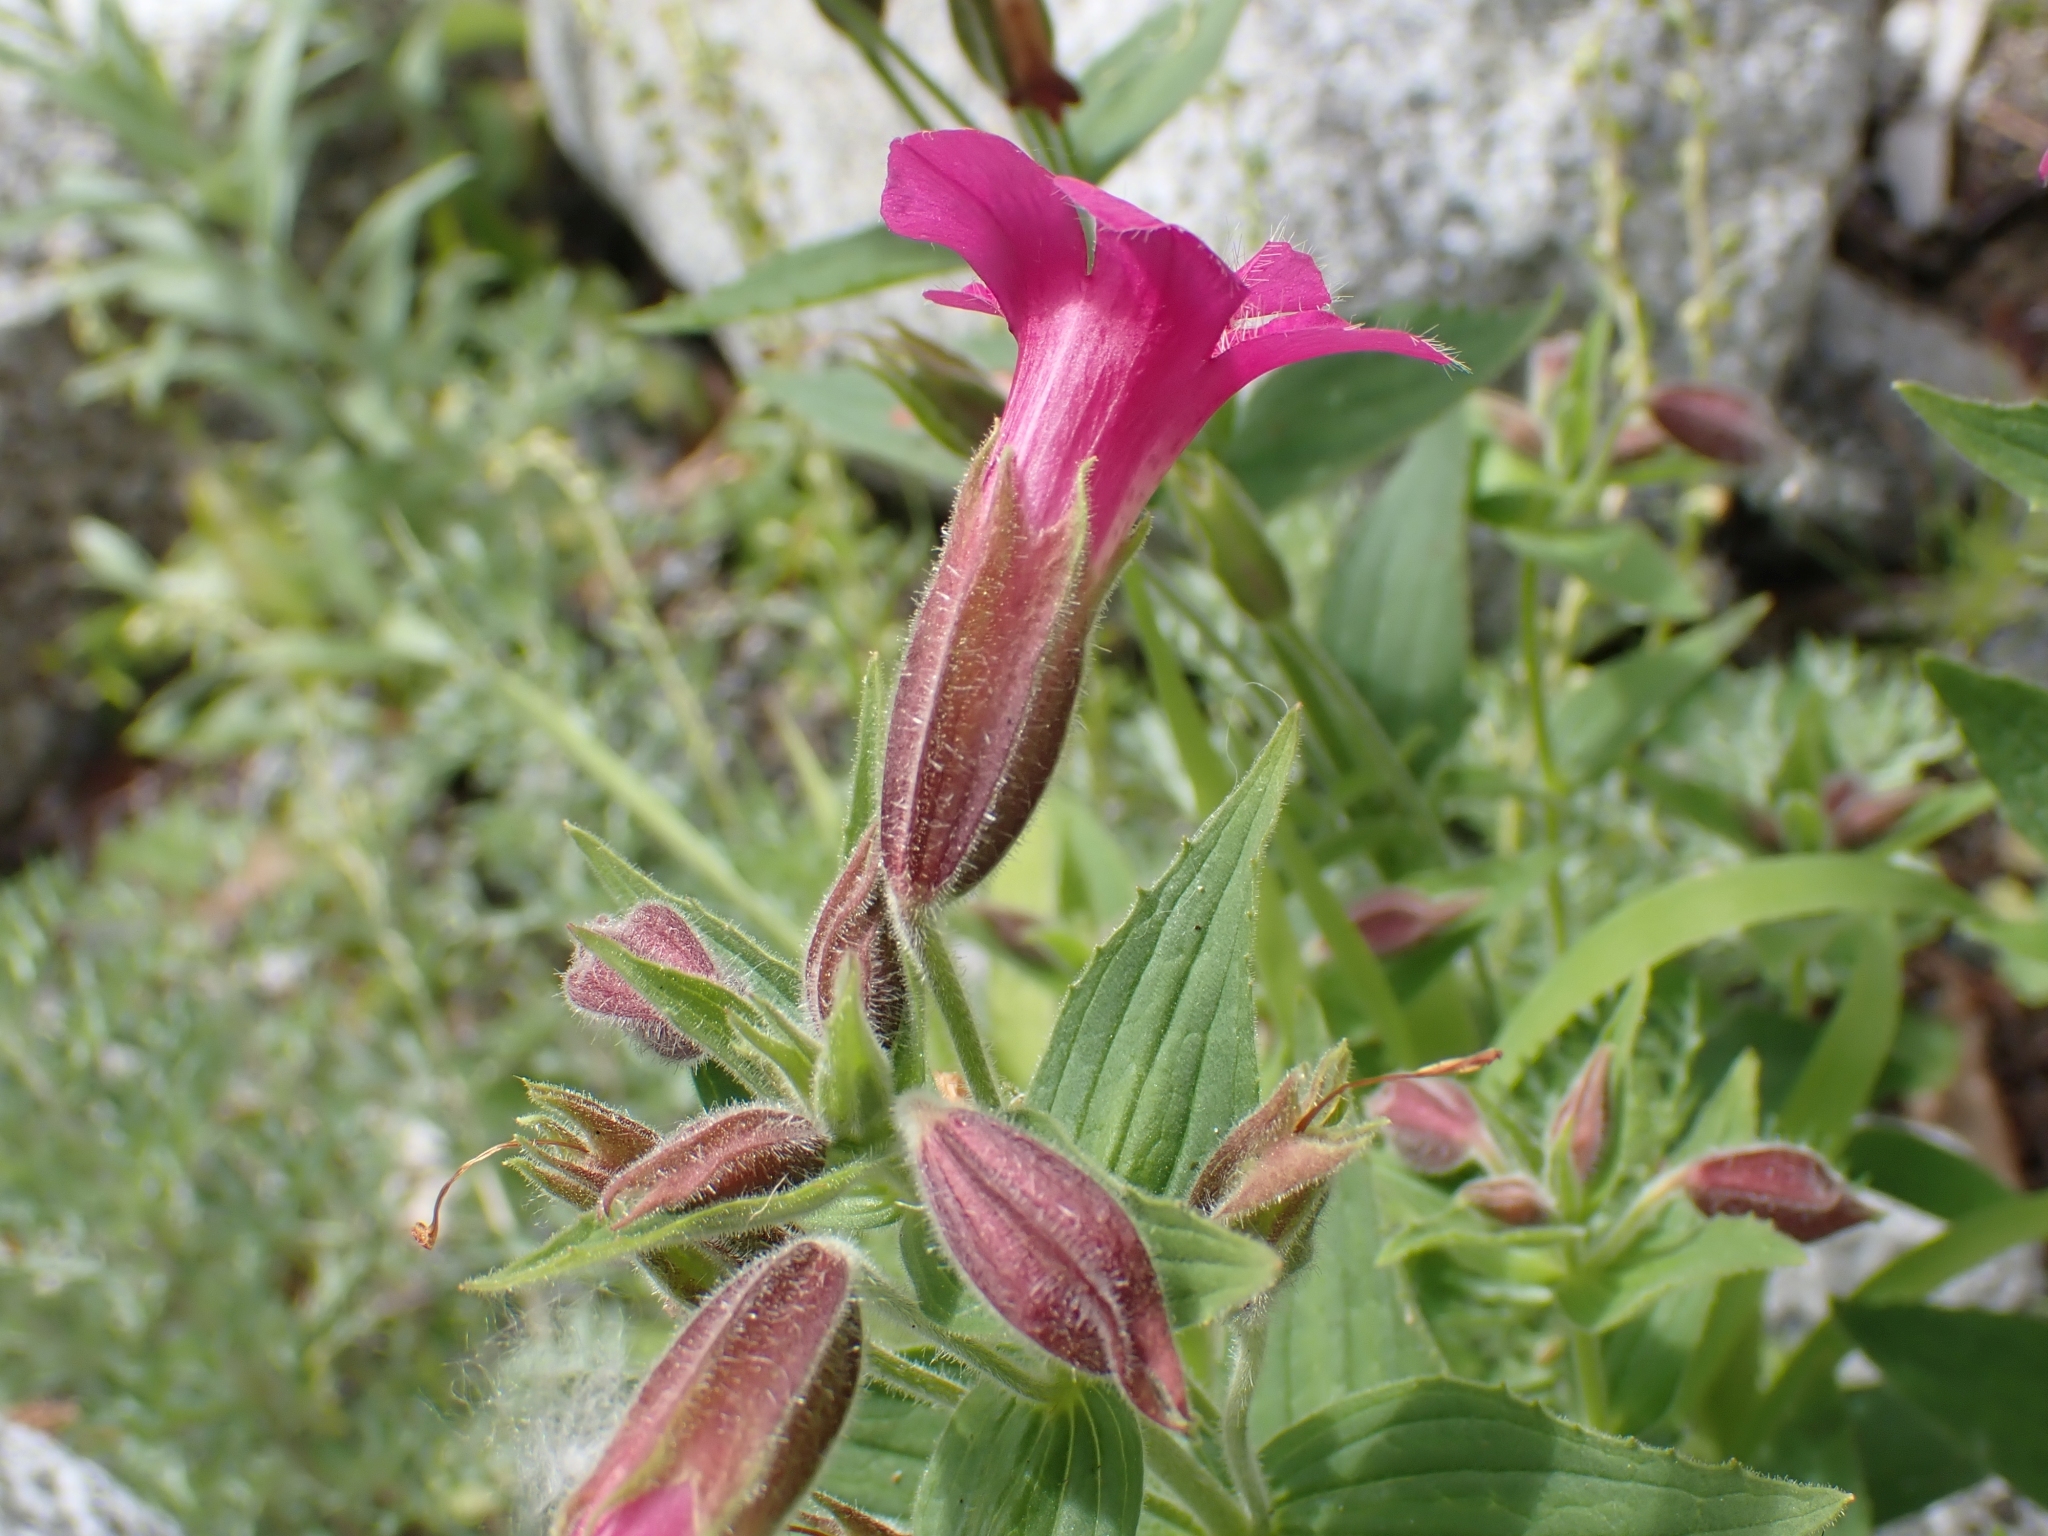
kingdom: Plantae
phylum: Tracheophyta
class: Magnoliopsida
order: Lamiales
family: Phrymaceae
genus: Erythranthe
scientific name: Erythranthe lewisii
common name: Lewis's monkey-flower
